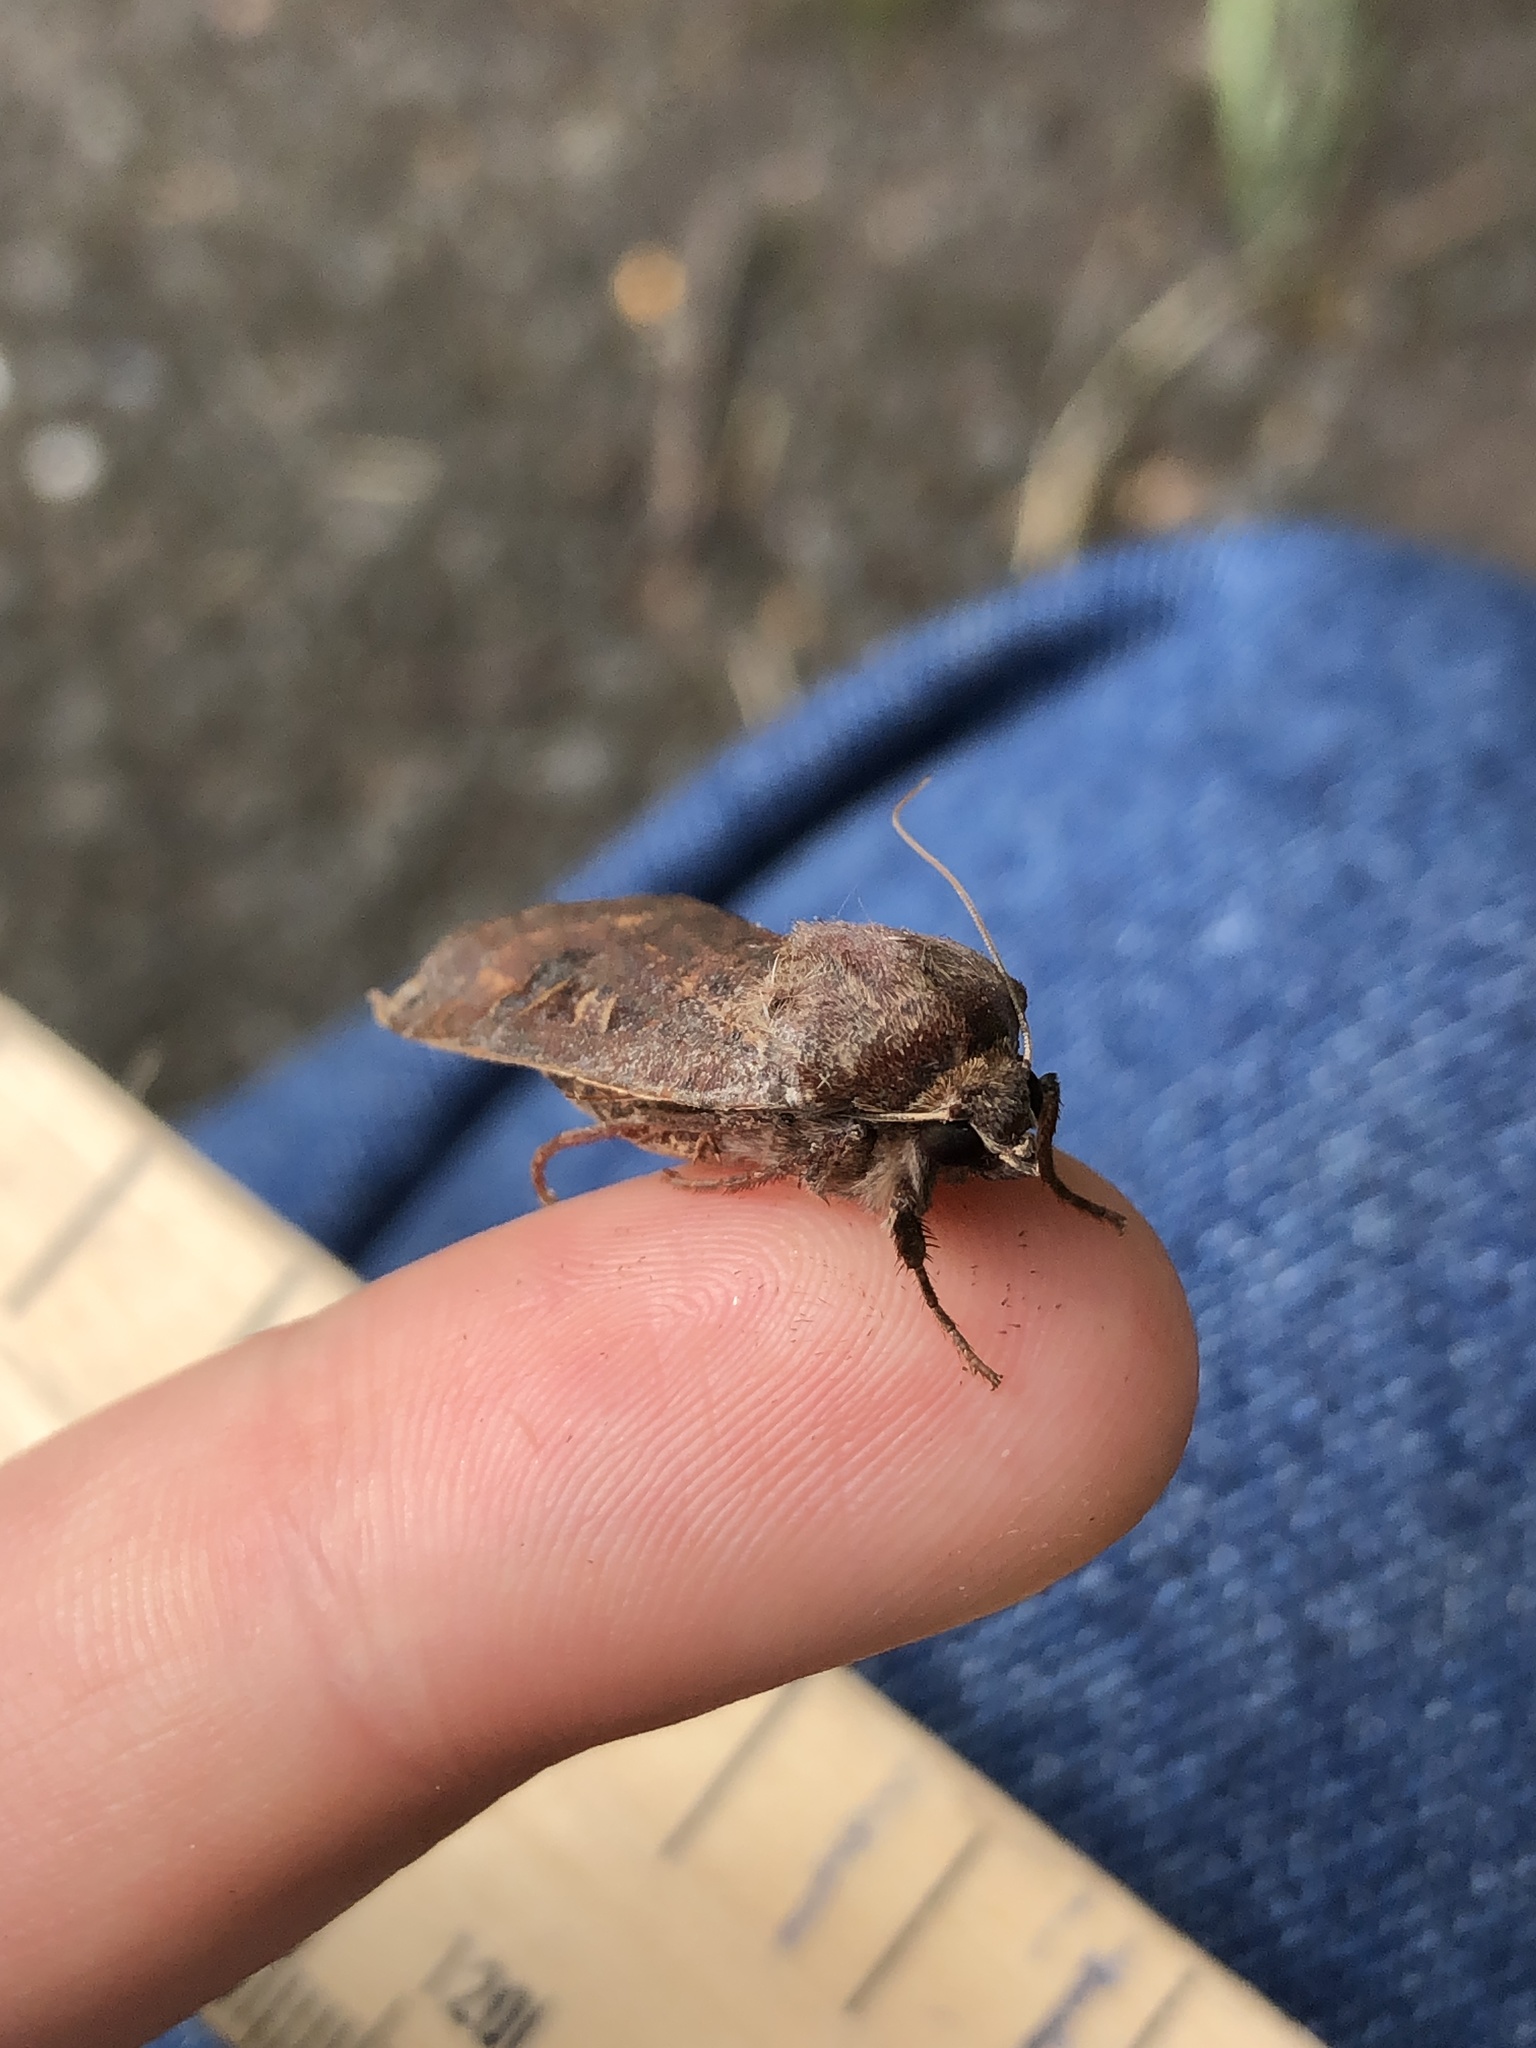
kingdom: Animalia
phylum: Arthropoda
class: Insecta
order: Lepidoptera
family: Noctuidae
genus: Noctua
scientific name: Noctua pronuba
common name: Large yellow underwing
